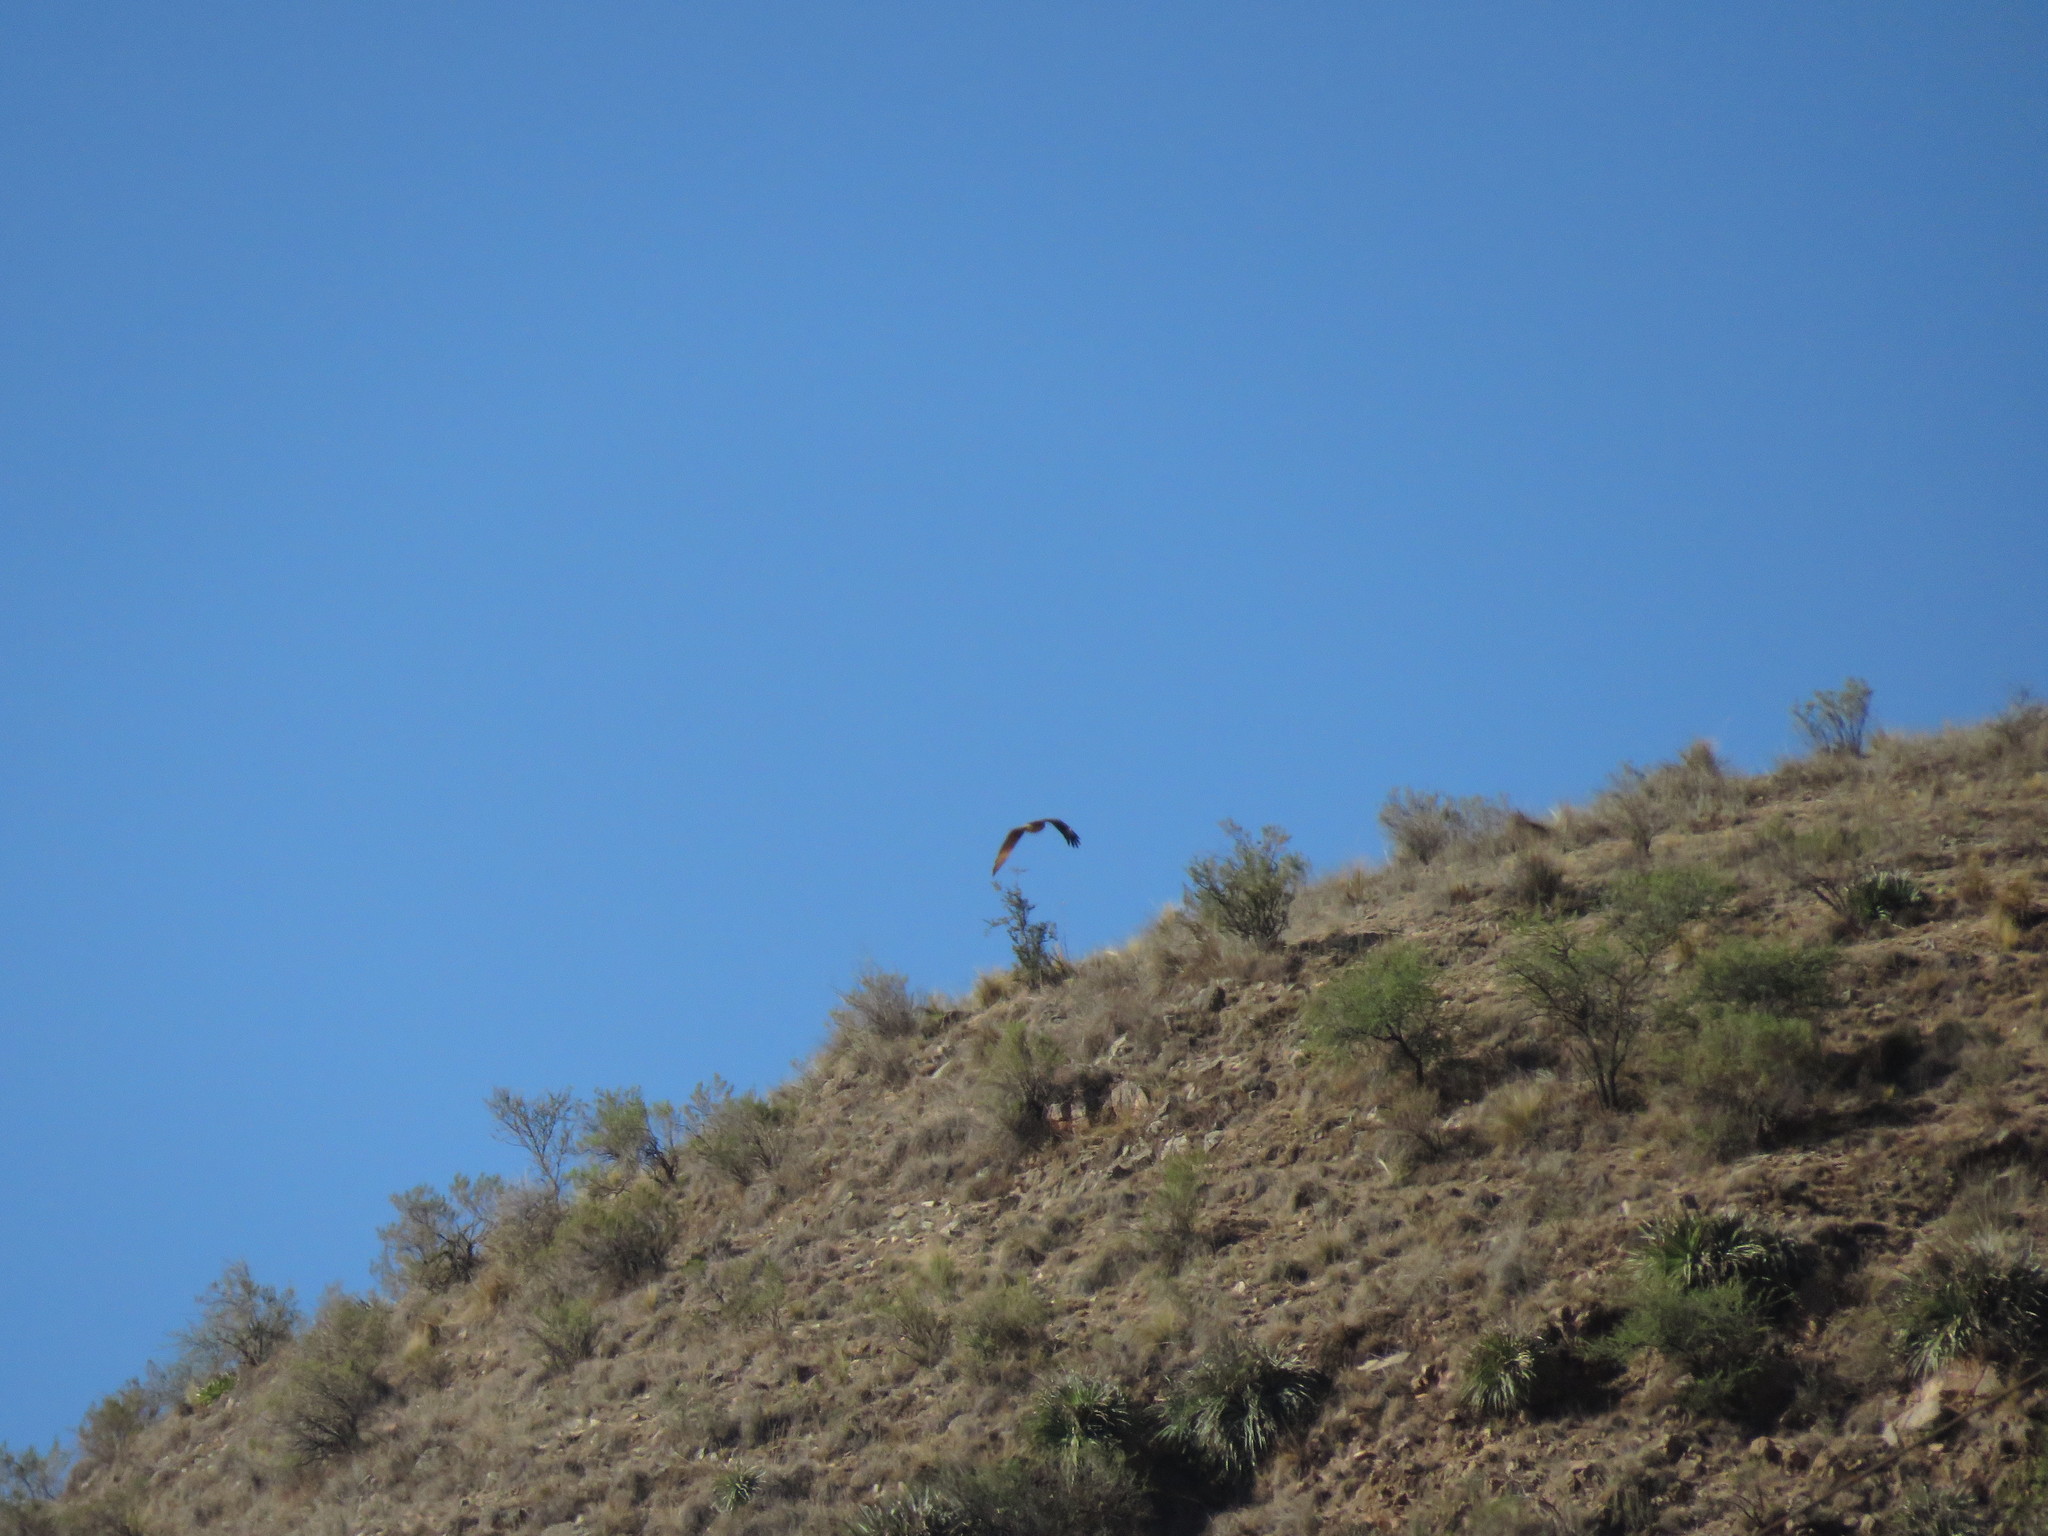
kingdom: Animalia
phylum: Chordata
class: Aves
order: Falconiformes
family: Falconidae
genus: Daptrius
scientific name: Daptrius
